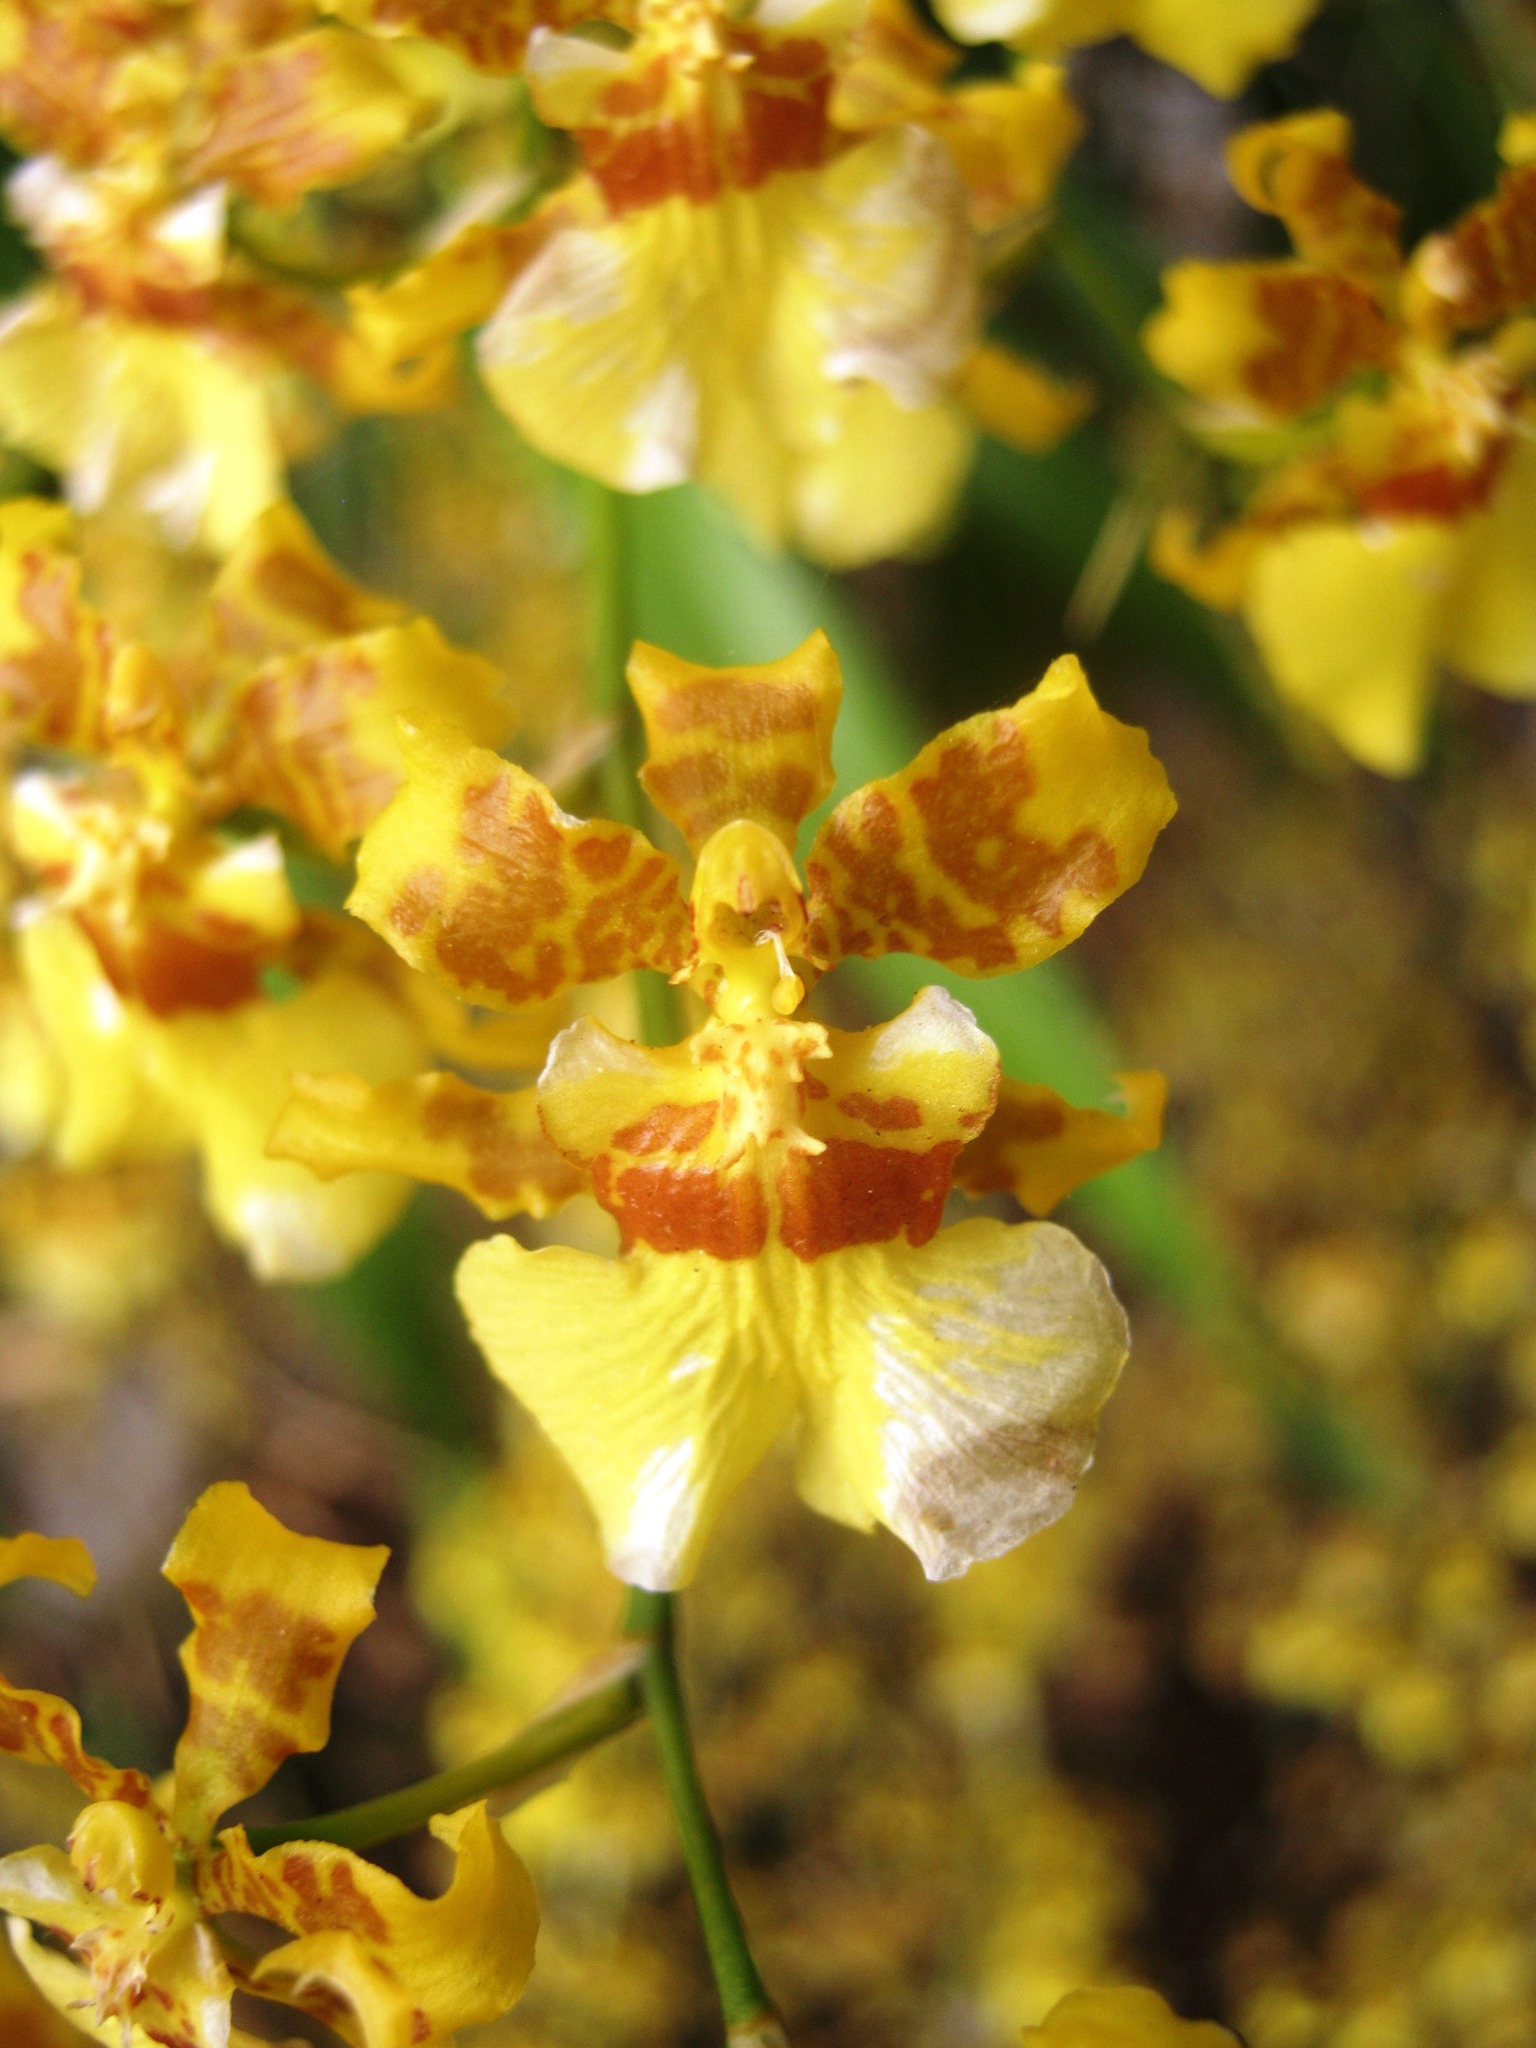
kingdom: Plantae
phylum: Tracheophyta
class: Liliopsida
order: Asparagales
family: Orchidaceae
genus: Oncidium
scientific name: Oncidium sphacelatum
